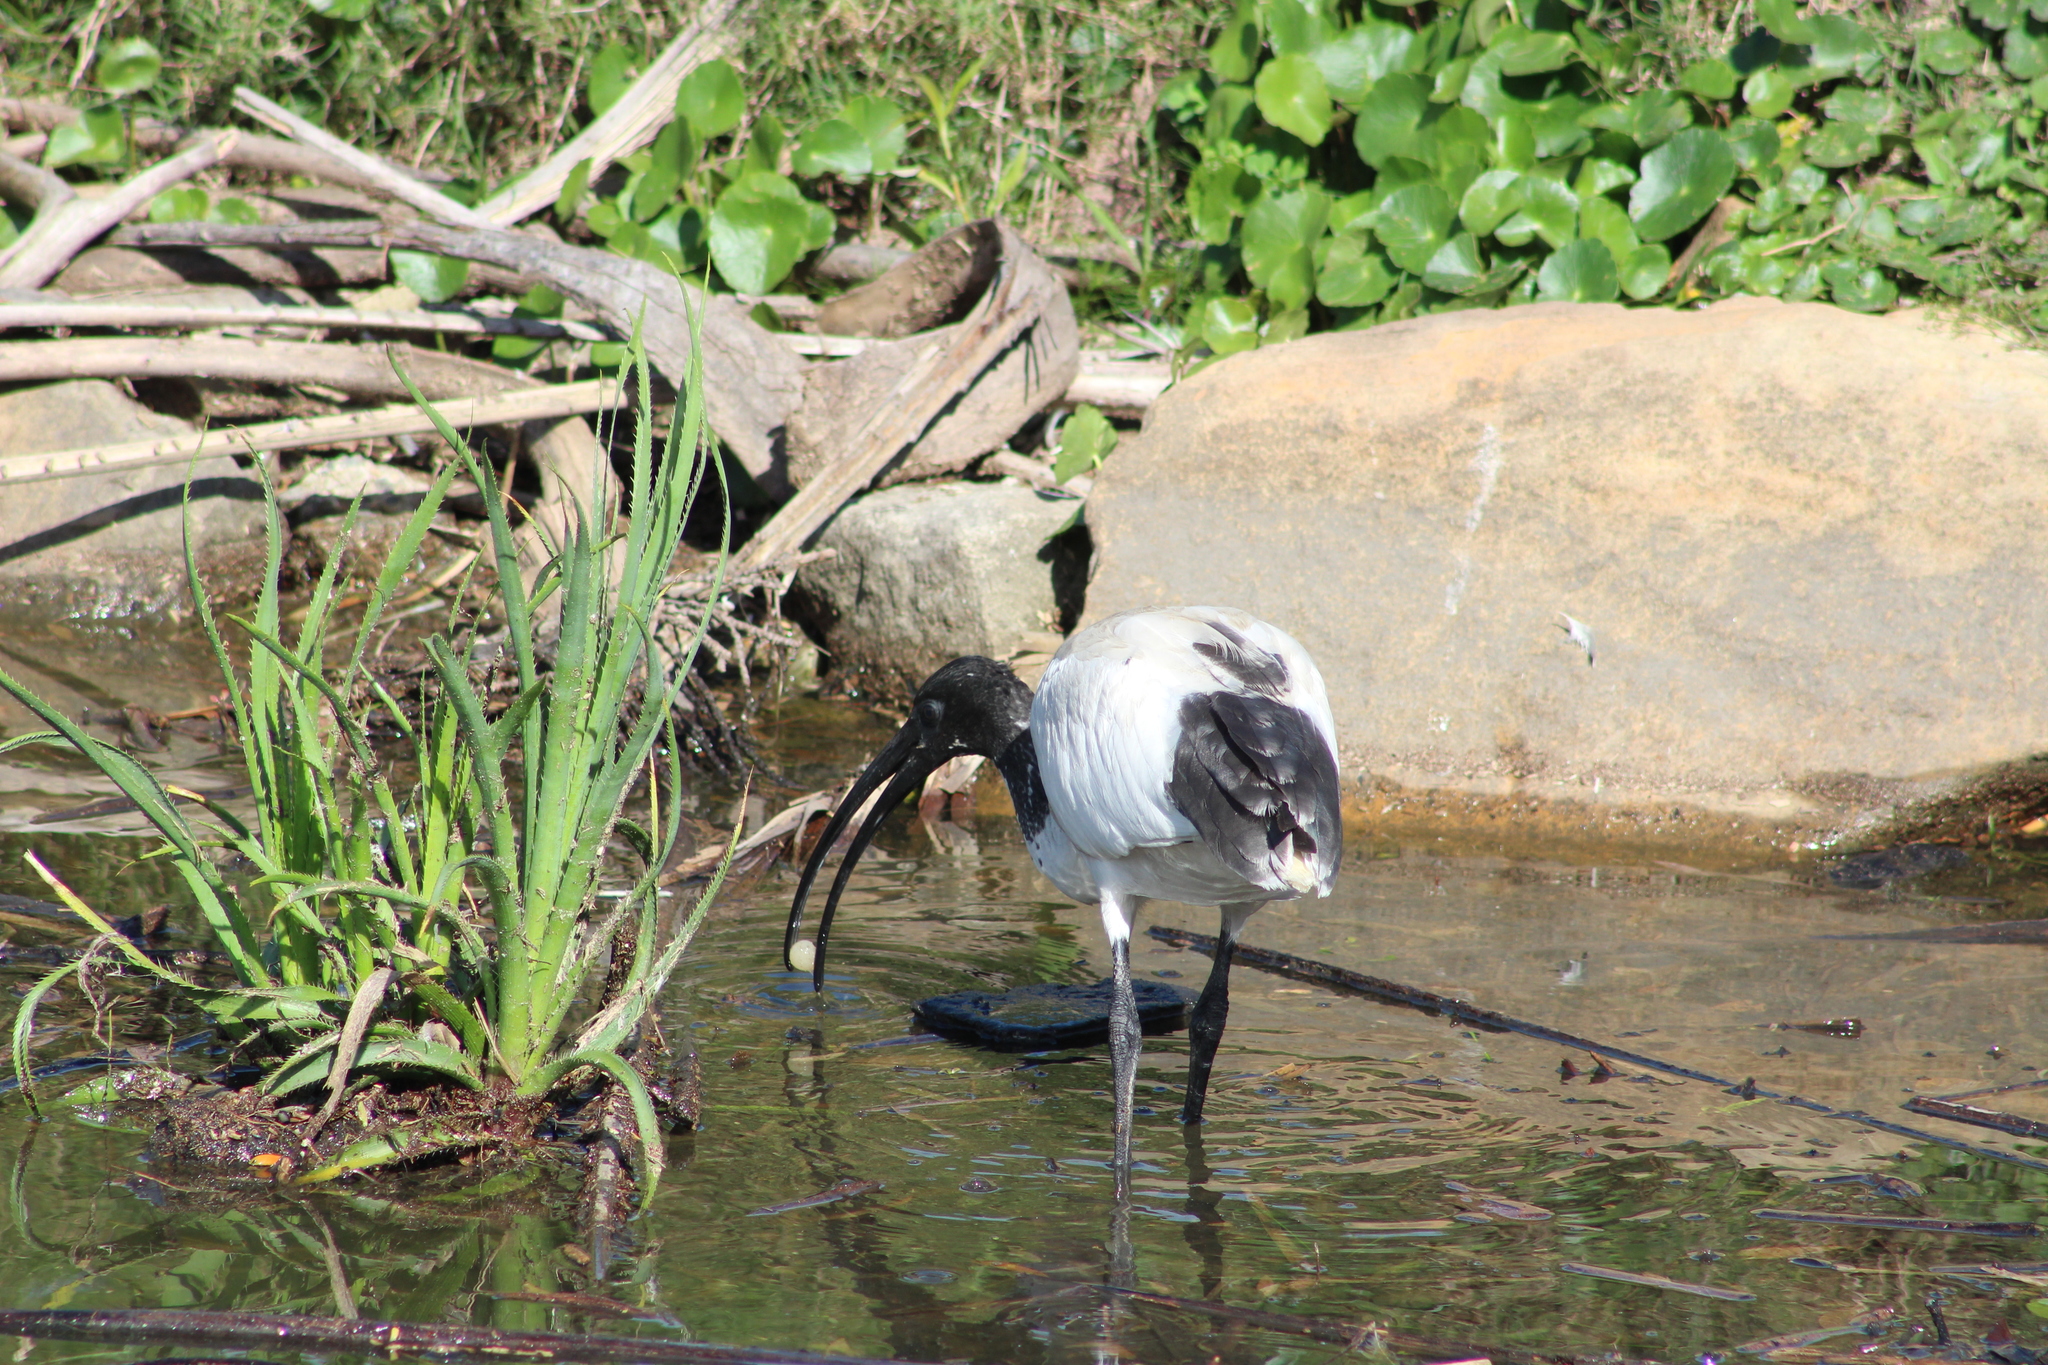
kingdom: Animalia
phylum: Chordata
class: Aves
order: Pelecaniformes
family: Threskiornithidae
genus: Threskiornis
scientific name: Threskiornis molucca
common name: Australian white ibis
